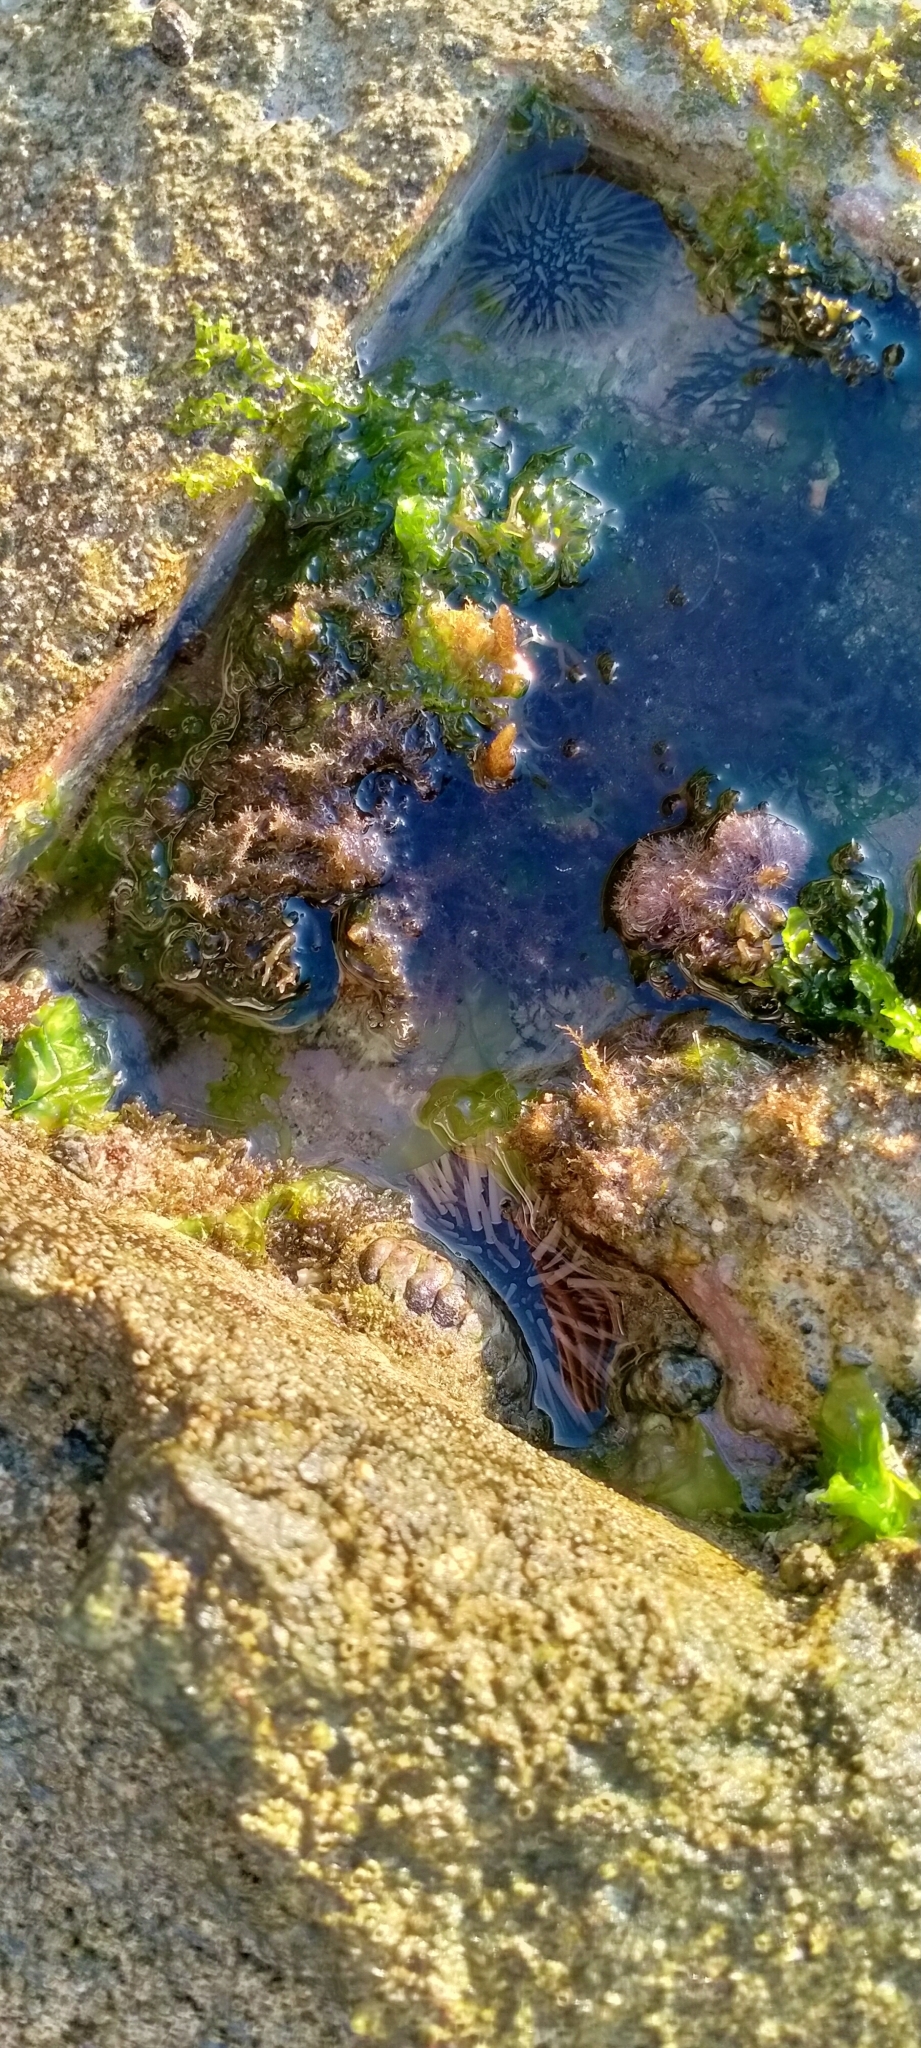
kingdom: Animalia
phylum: Echinodermata
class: Echinoidea
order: Camarodonta
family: Echinometridae
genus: Echinometra
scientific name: Echinometra mathaei
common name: Rock-boring urchin
